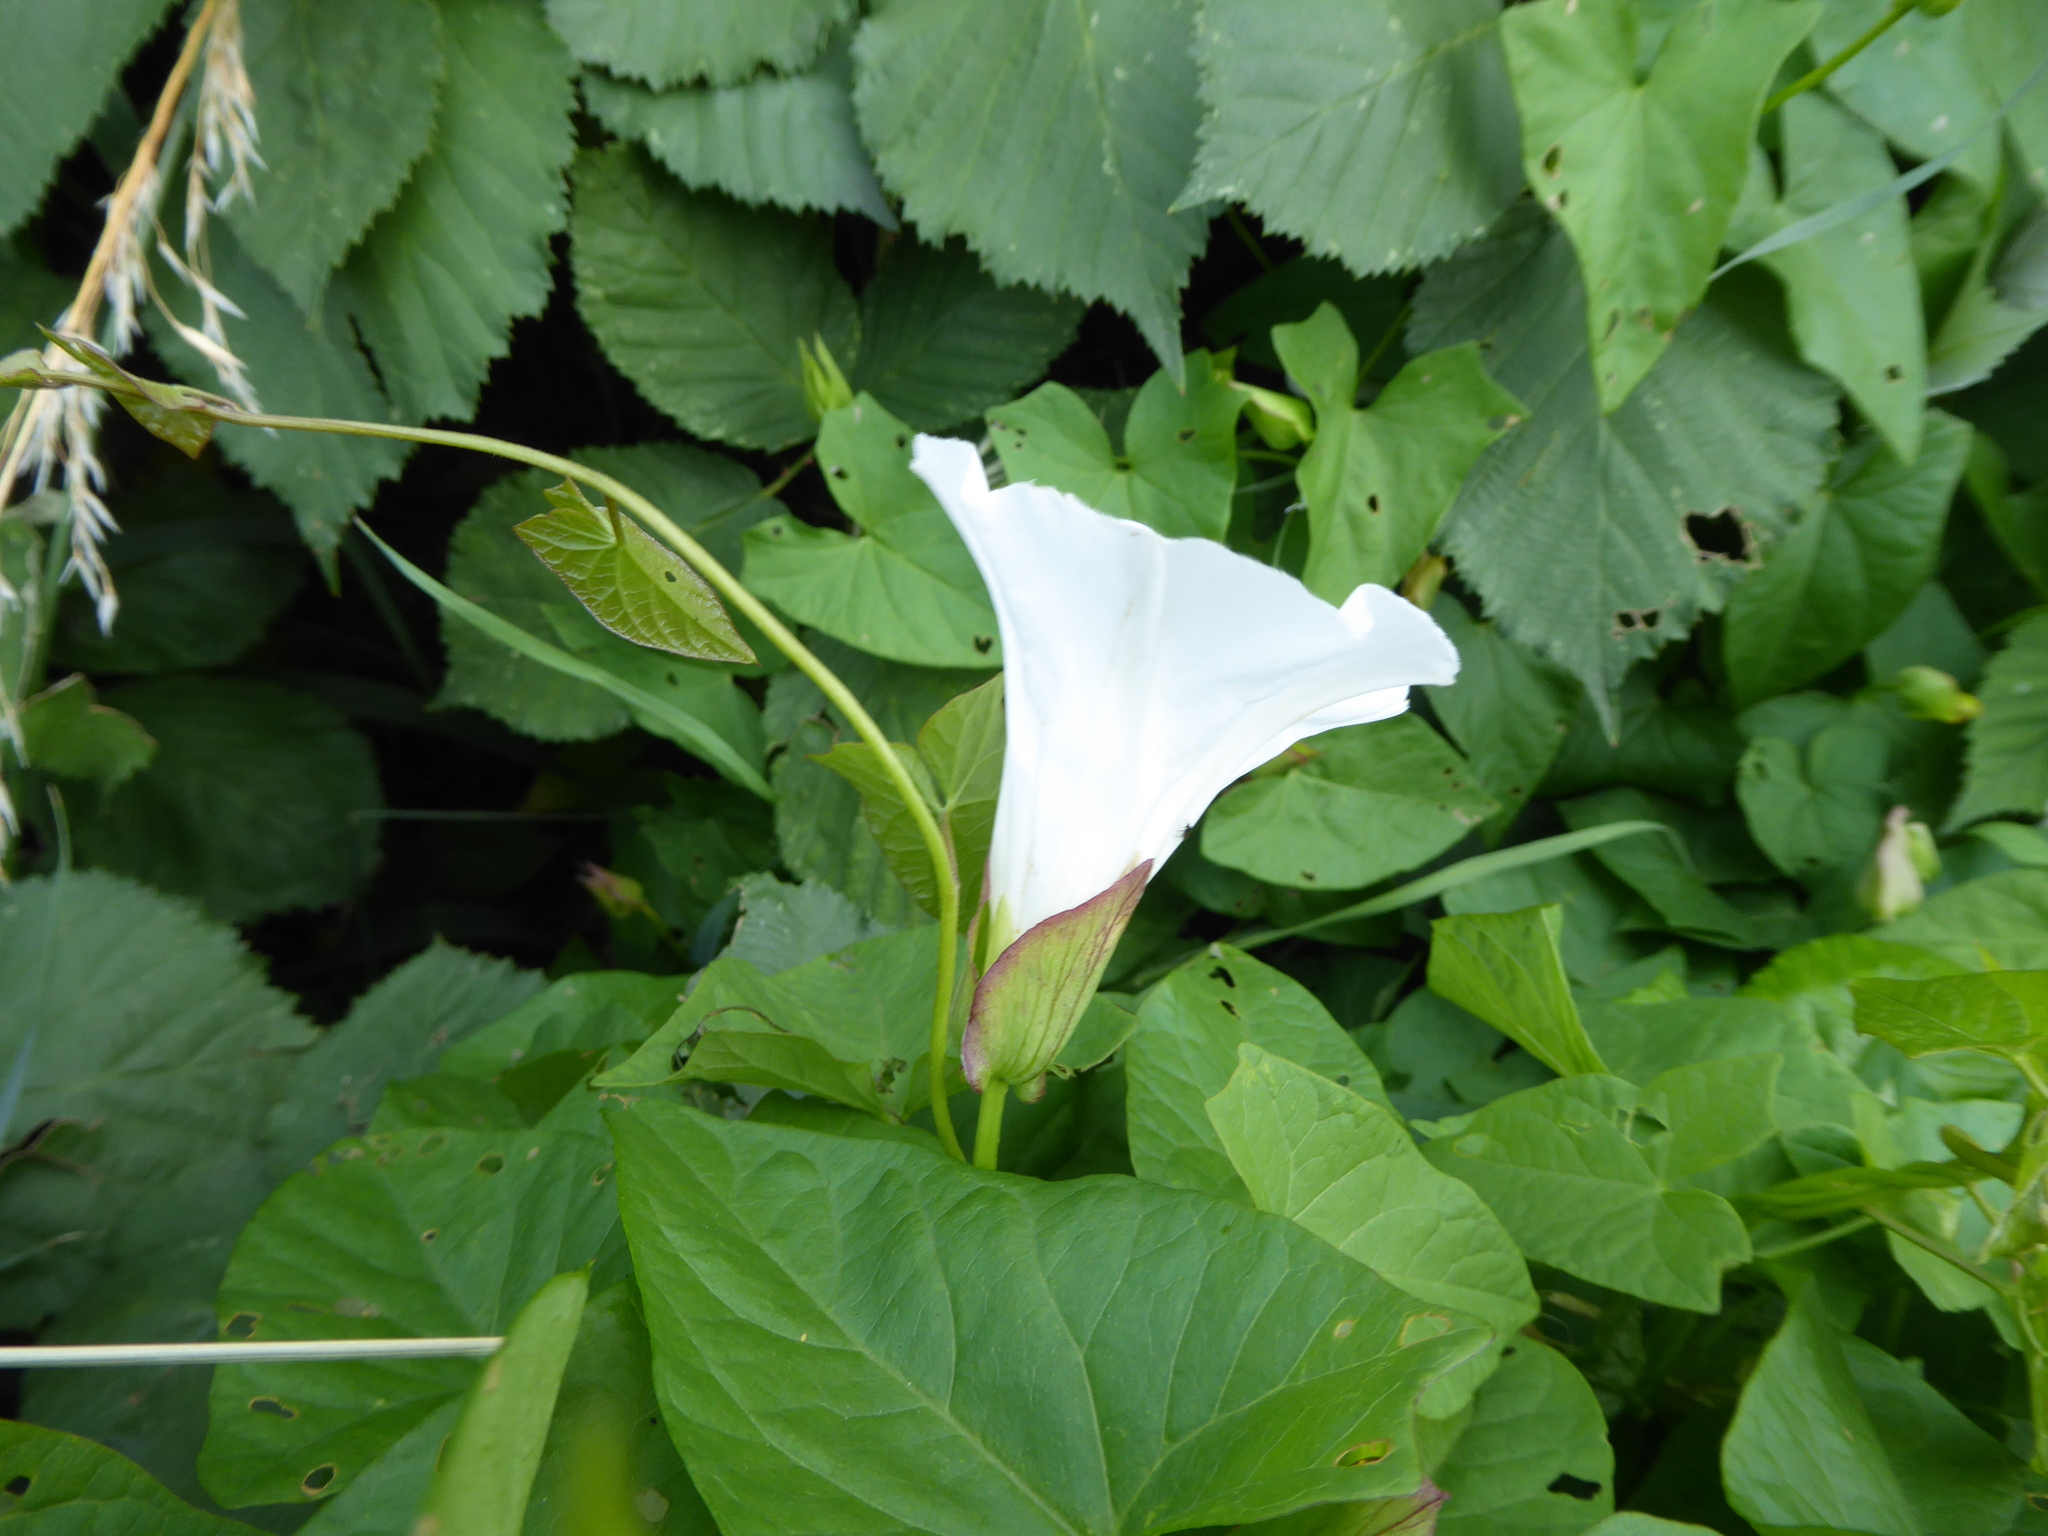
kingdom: Plantae
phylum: Tracheophyta
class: Magnoliopsida
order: Solanales
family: Convolvulaceae
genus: Calystegia
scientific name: Calystegia sepium
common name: Hedge bindweed
